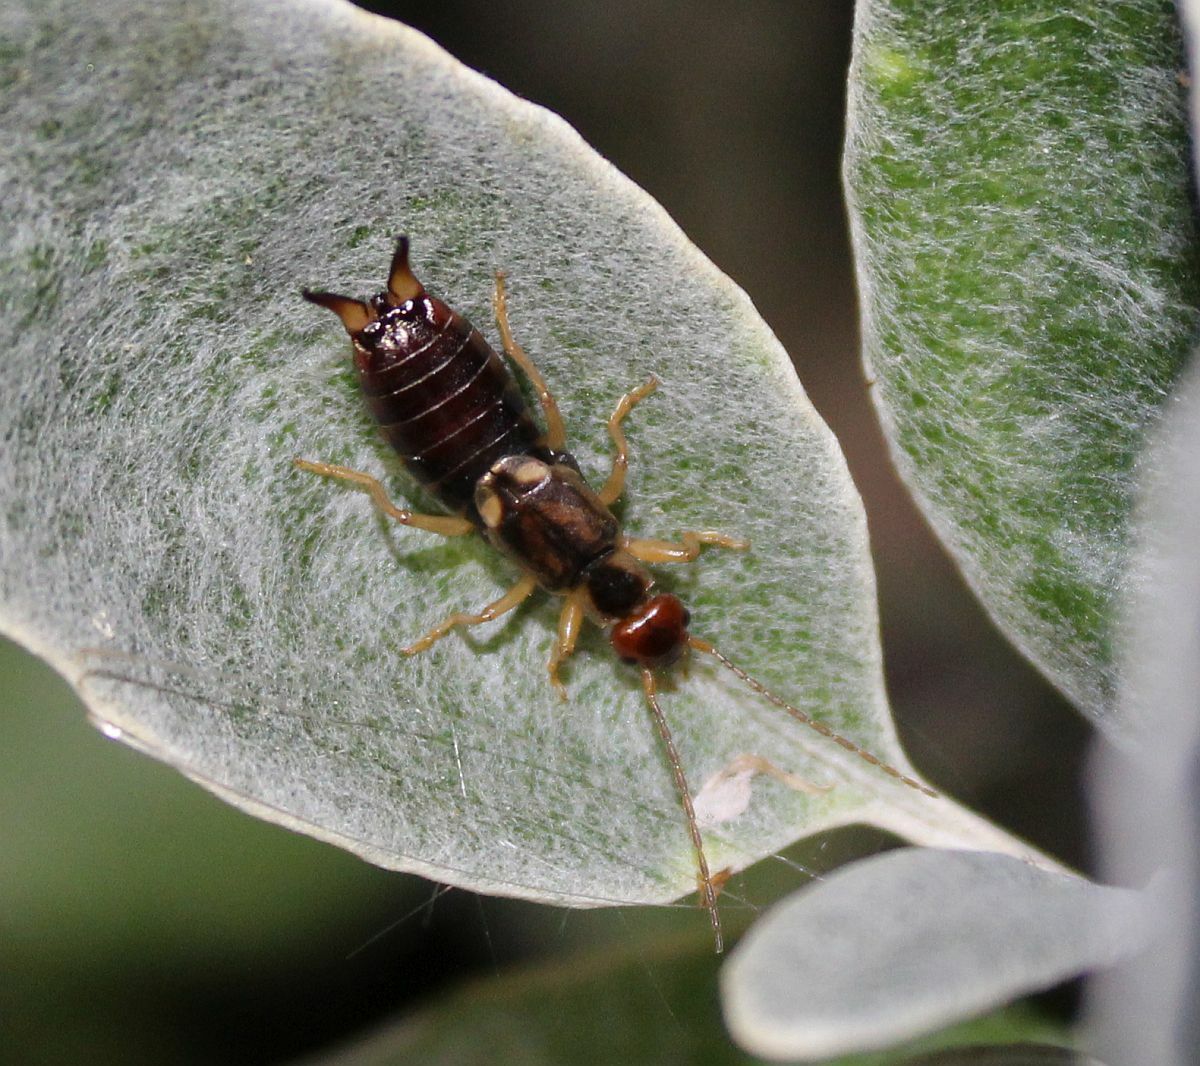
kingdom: Animalia
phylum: Arthropoda
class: Insecta
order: Dermaptera
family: Forficulidae
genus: Forficula
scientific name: Forficula
